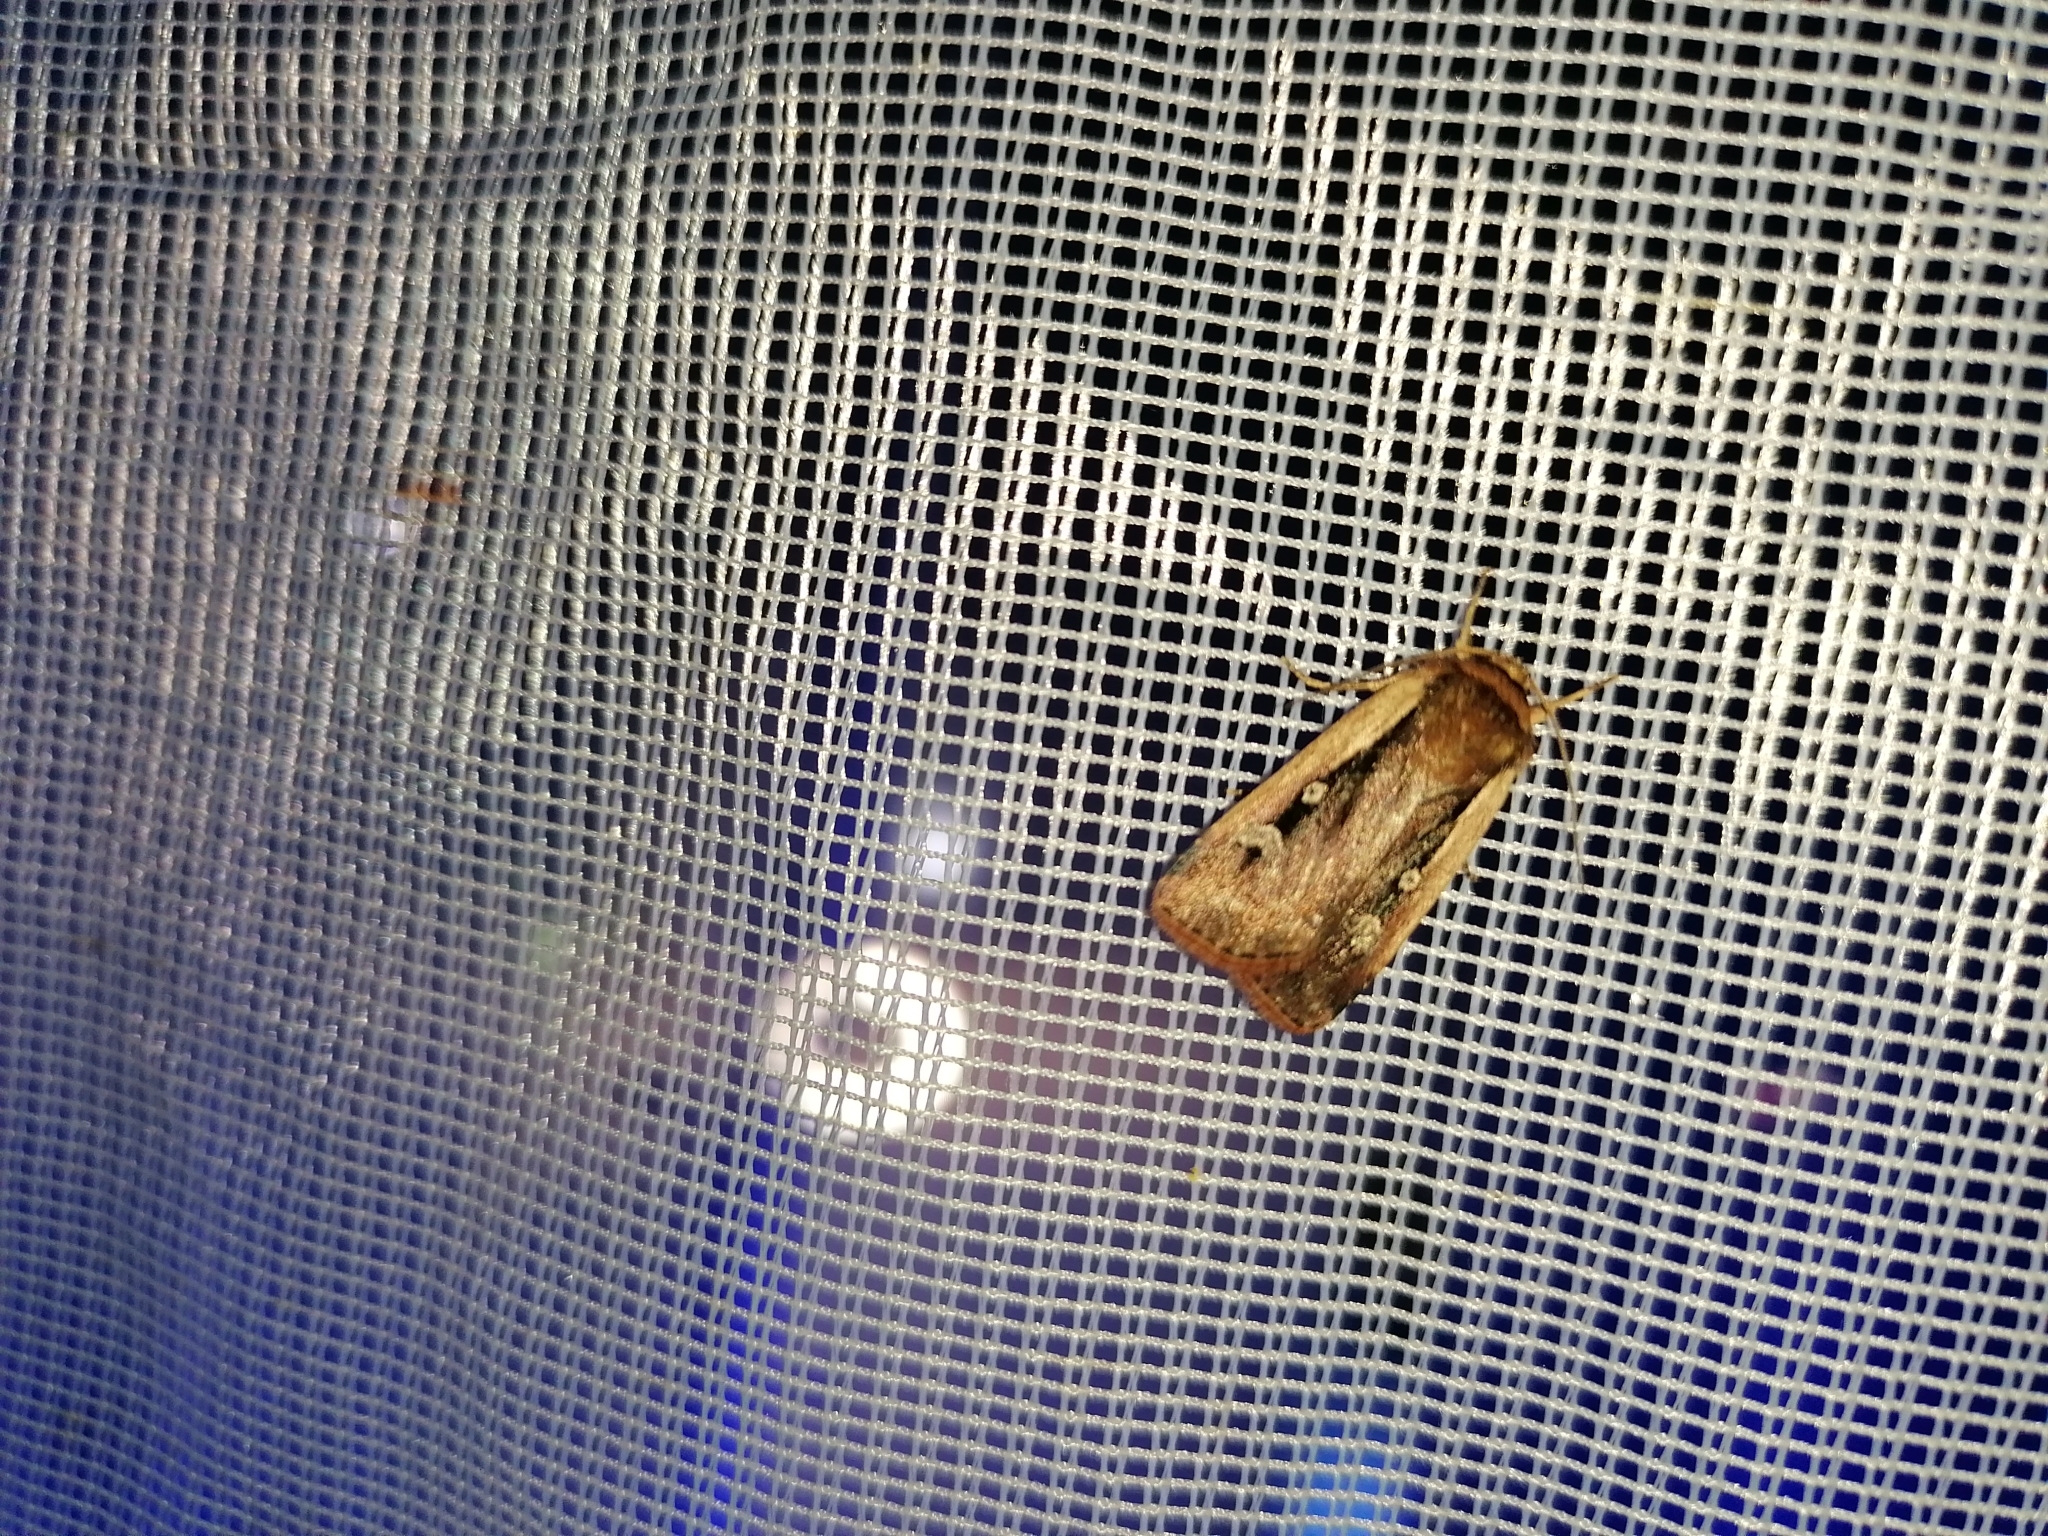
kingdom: Animalia
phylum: Arthropoda
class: Insecta
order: Lepidoptera
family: Noctuidae
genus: Ochropleura
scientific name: Ochropleura plecta
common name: Flame shoulder
